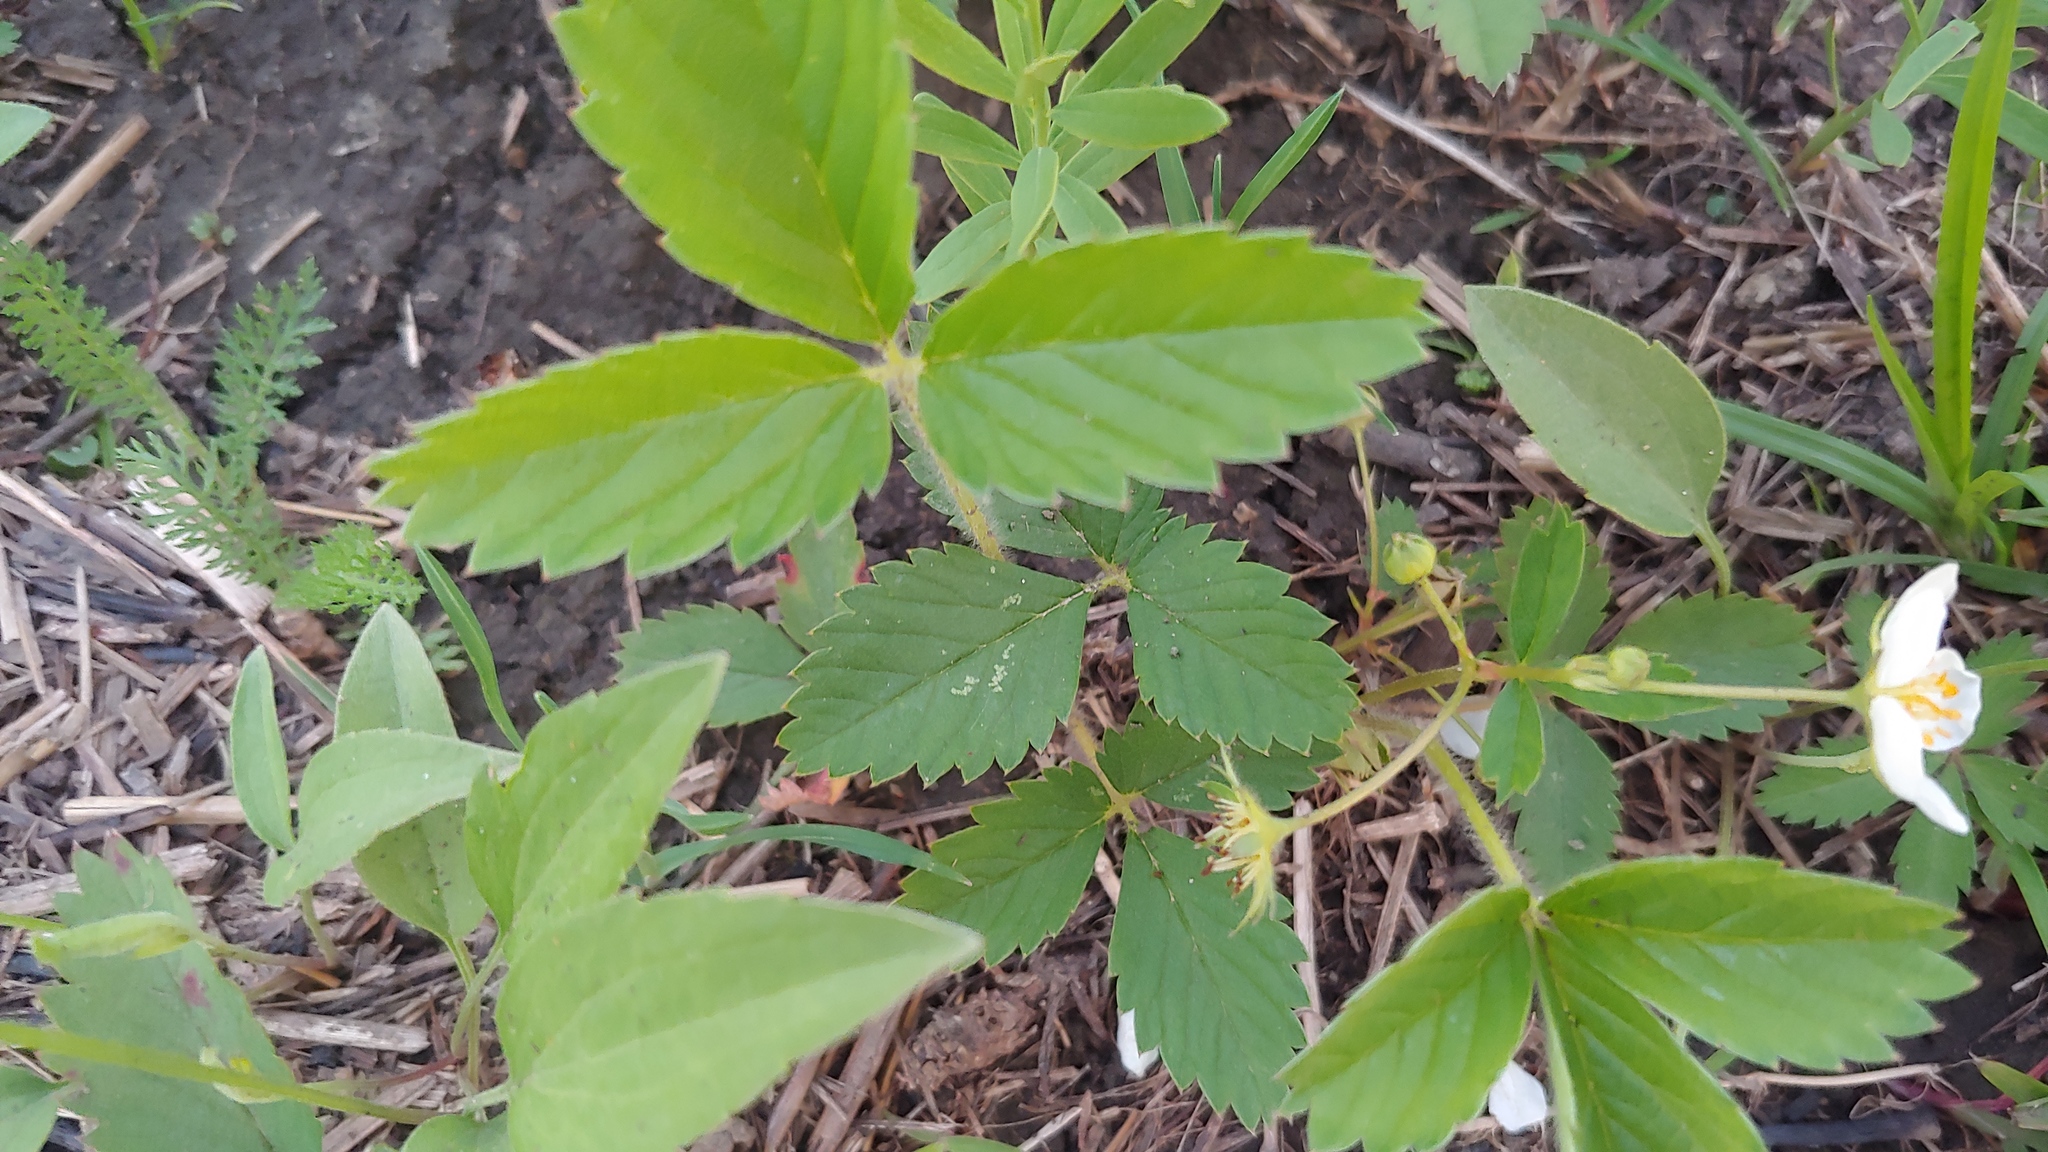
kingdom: Plantae
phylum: Tracheophyta
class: Magnoliopsida
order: Rosales
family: Rosaceae
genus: Fragaria
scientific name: Fragaria virginiana
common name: Thickleaved wild strawberry
